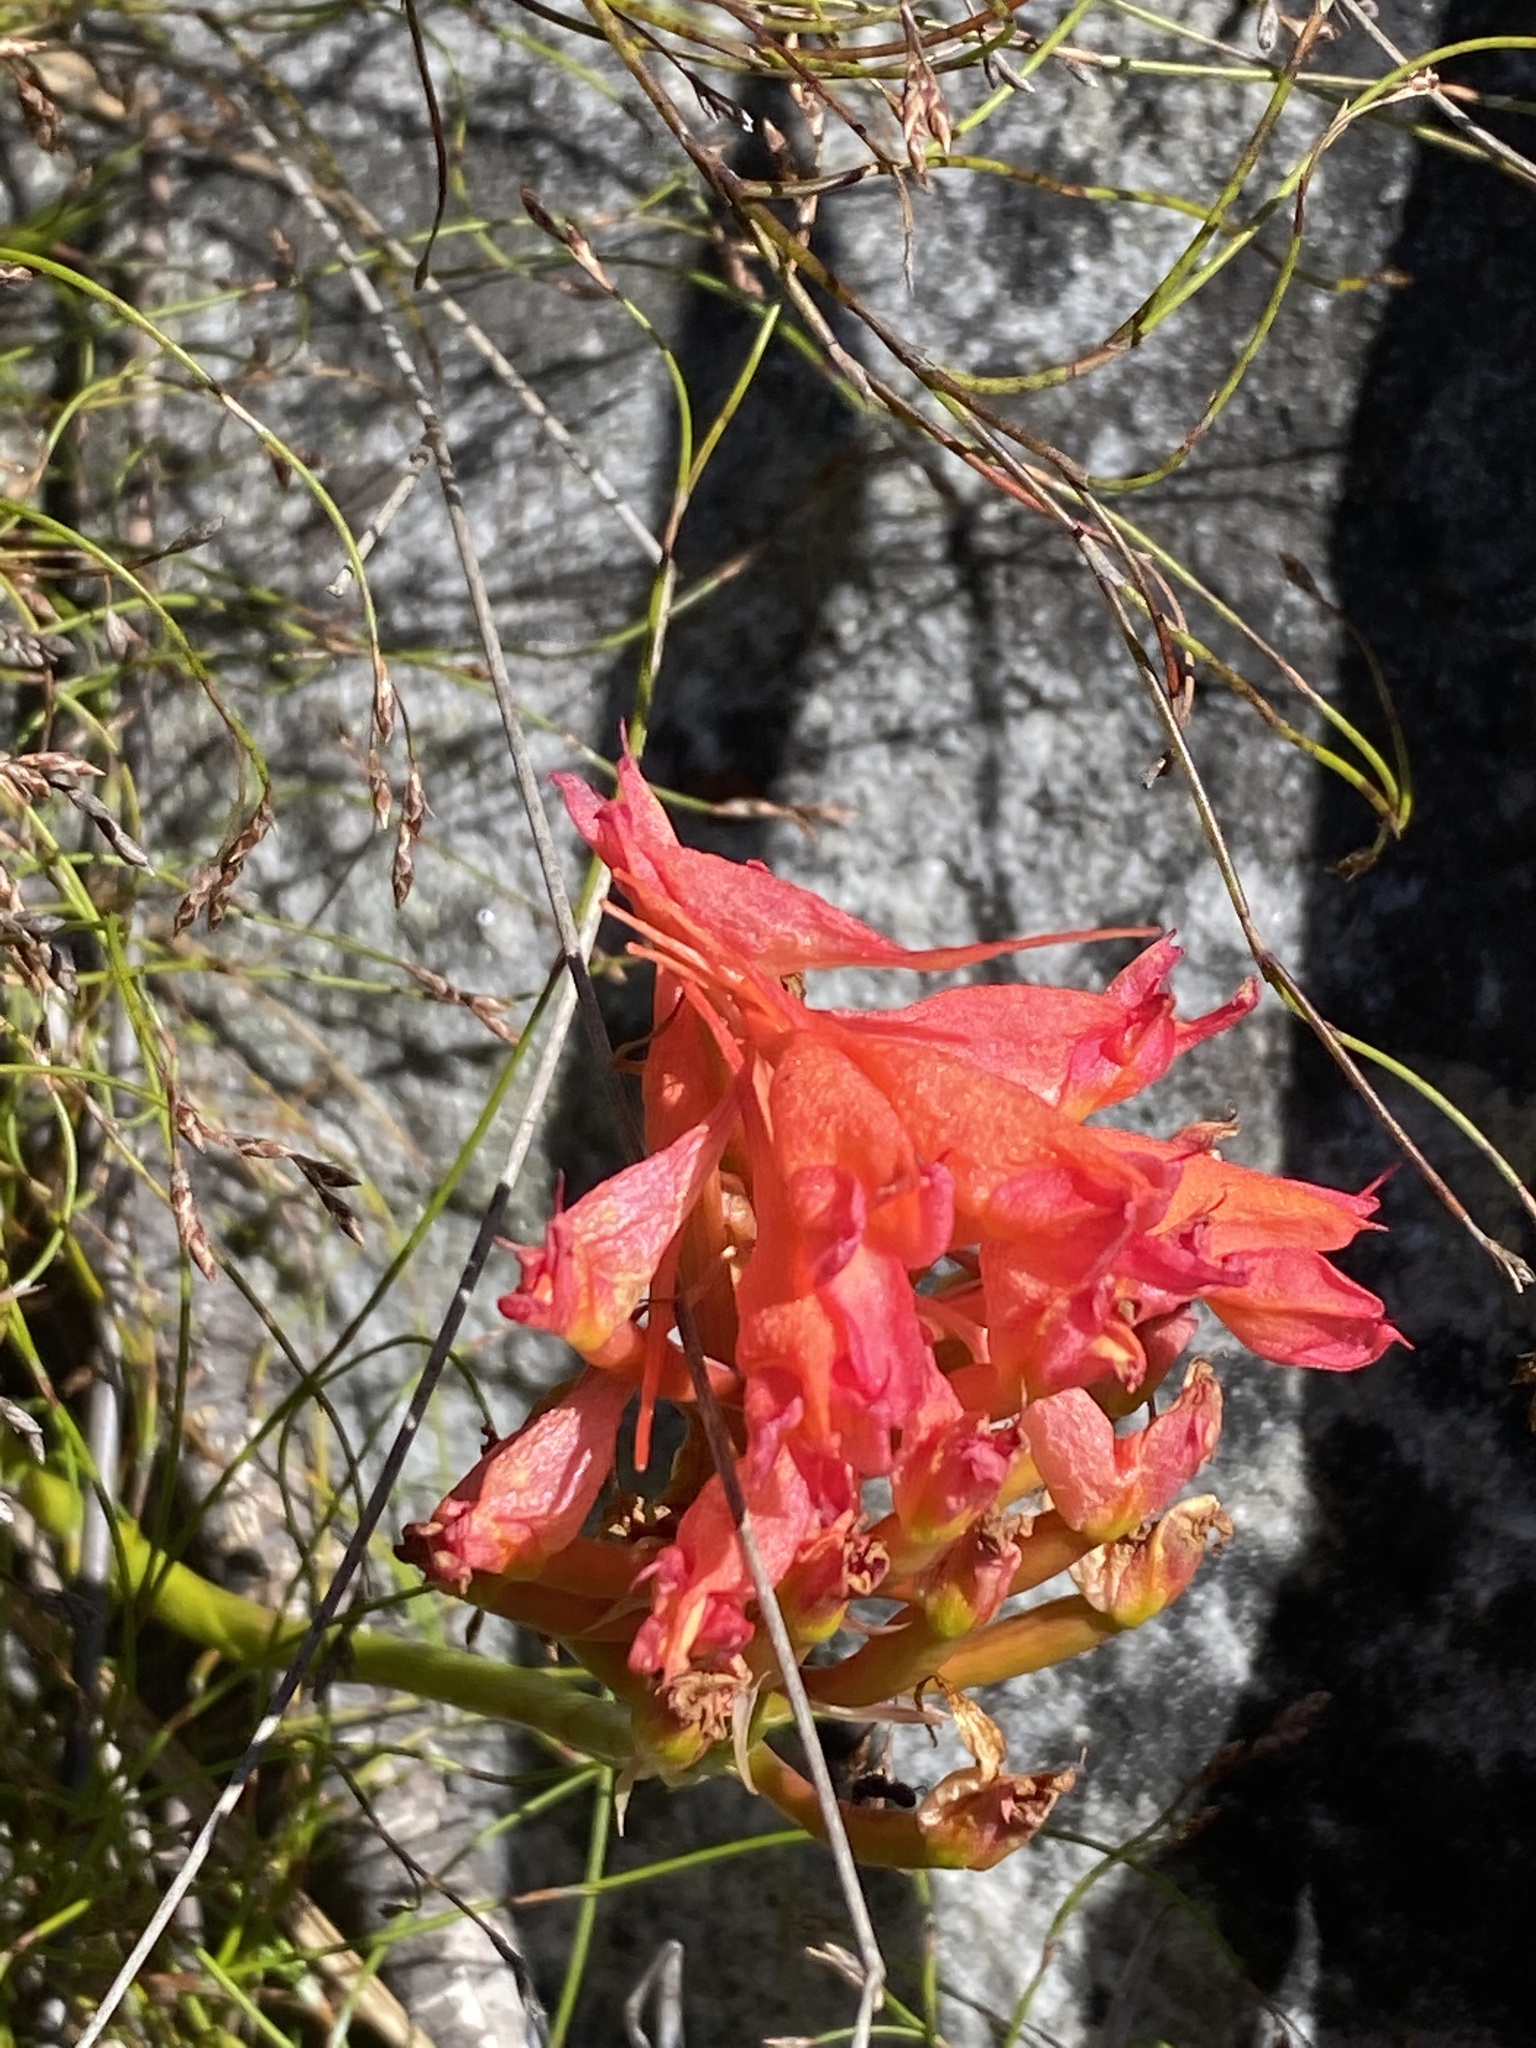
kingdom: Plantae
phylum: Tracheophyta
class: Liliopsida
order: Asparagales
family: Orchidaceae
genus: Disa
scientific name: Disa ferruginea
